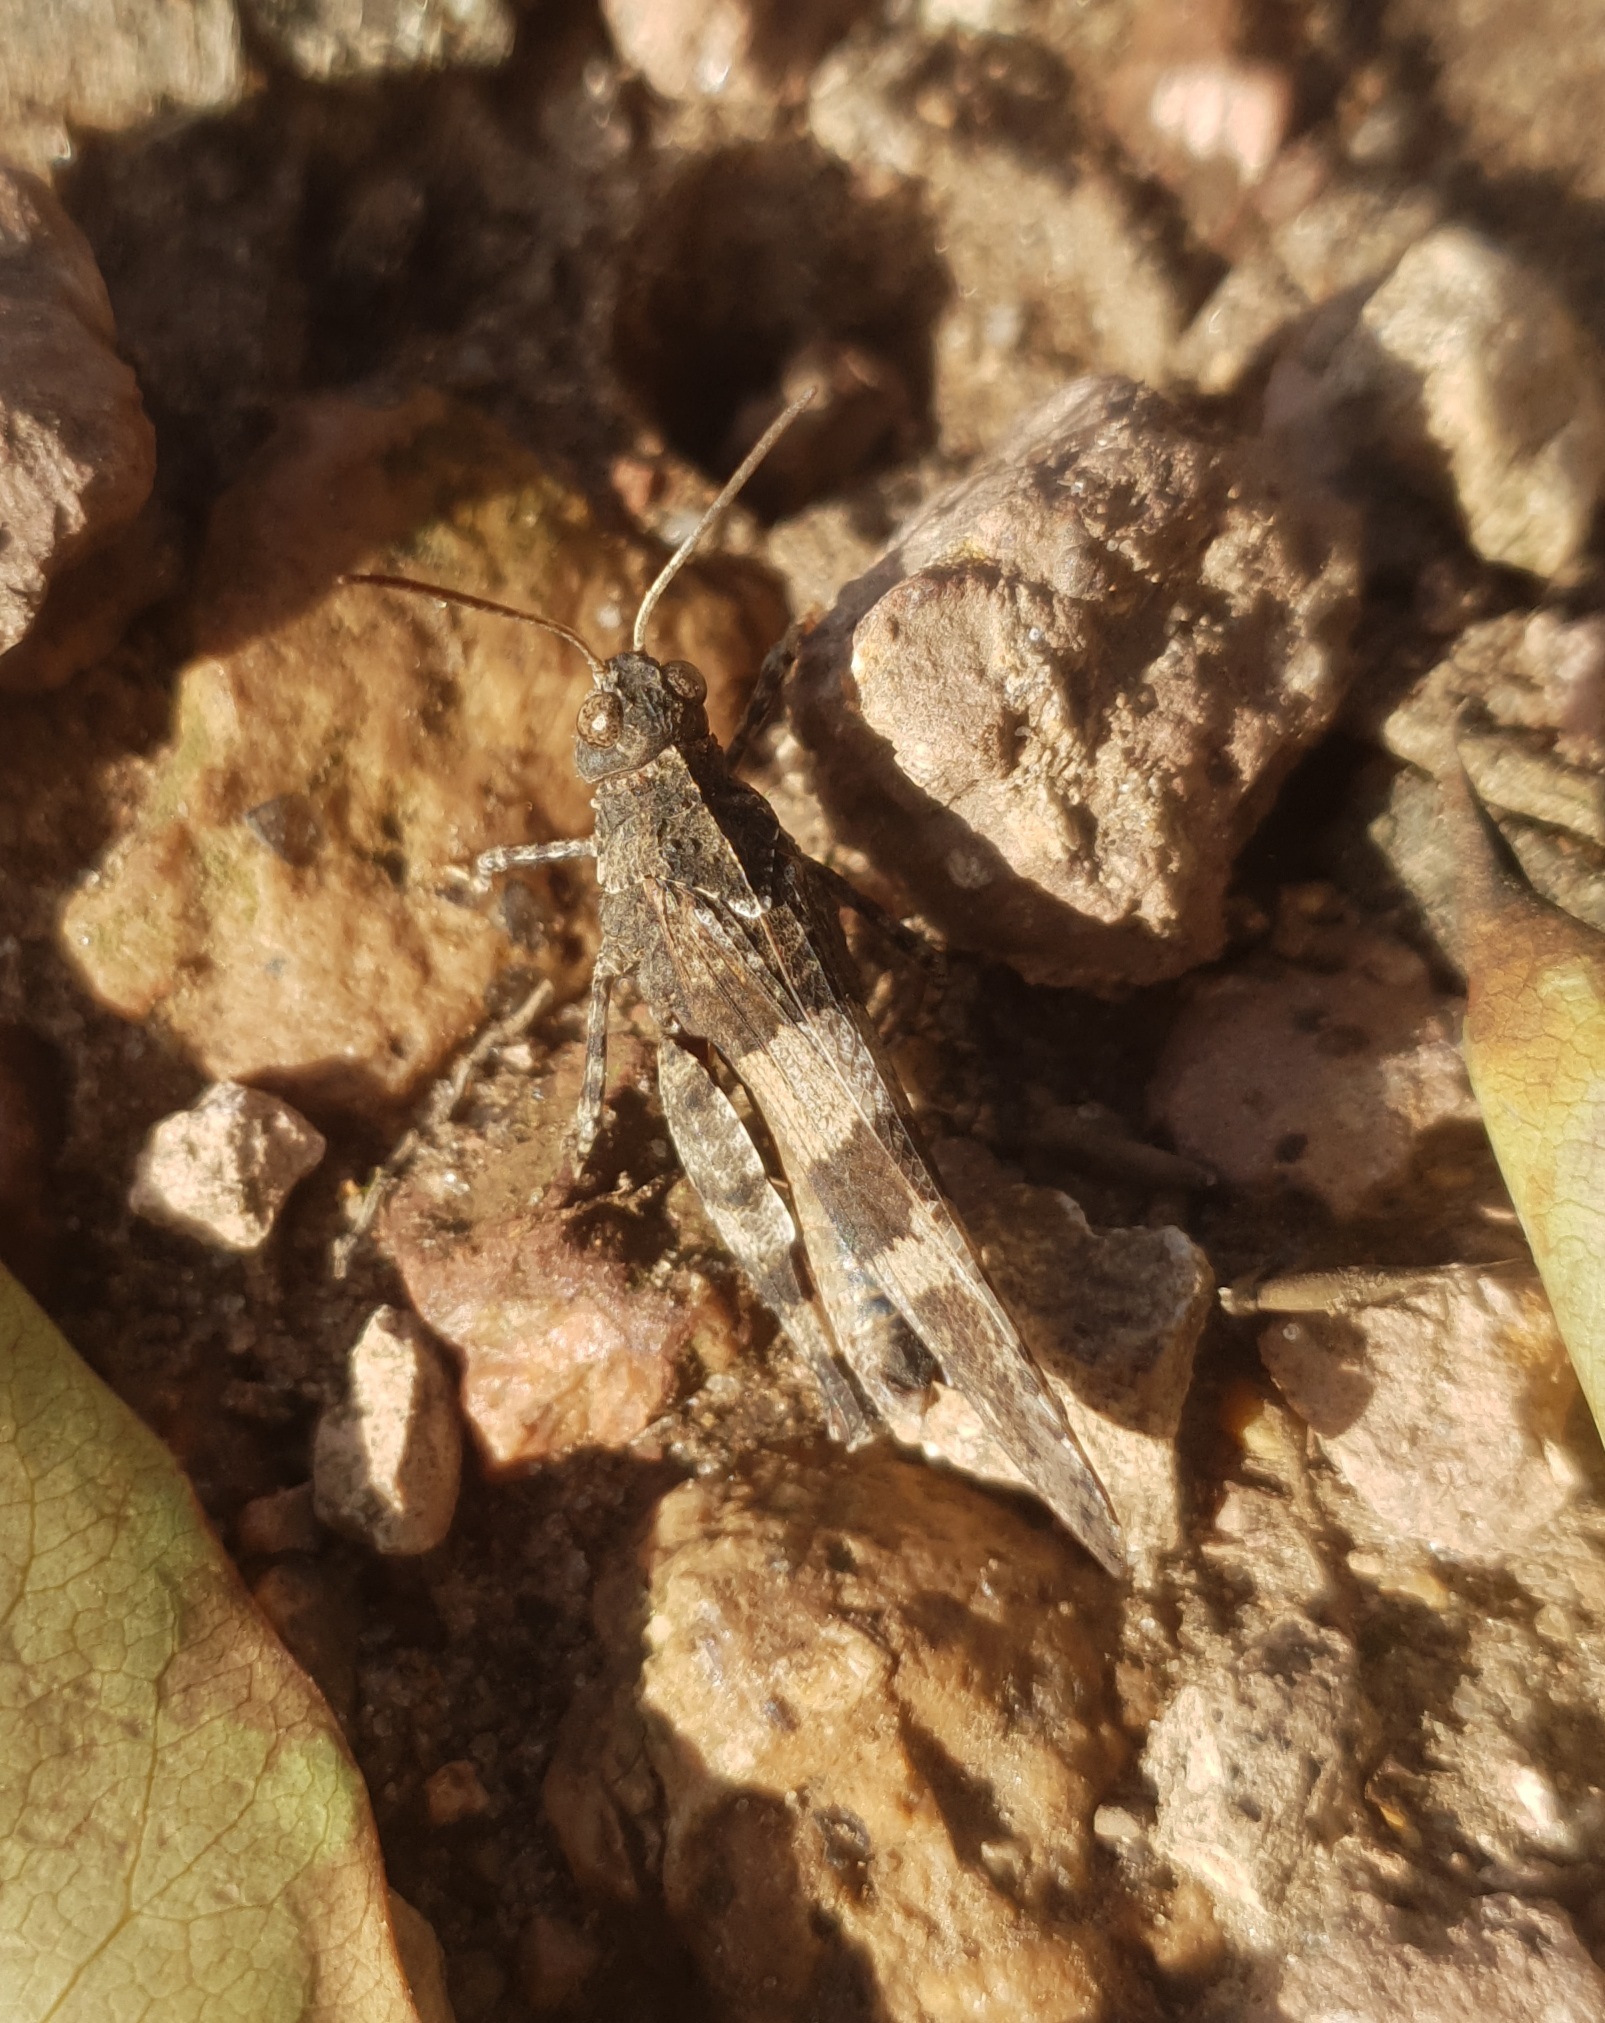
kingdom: Animalia
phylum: Arthropoda
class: Insecta
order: Orthoptera
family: Acrididae
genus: Oedipoda
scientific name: Oedipoda caerulescens
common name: Blue-winged grasshopper
